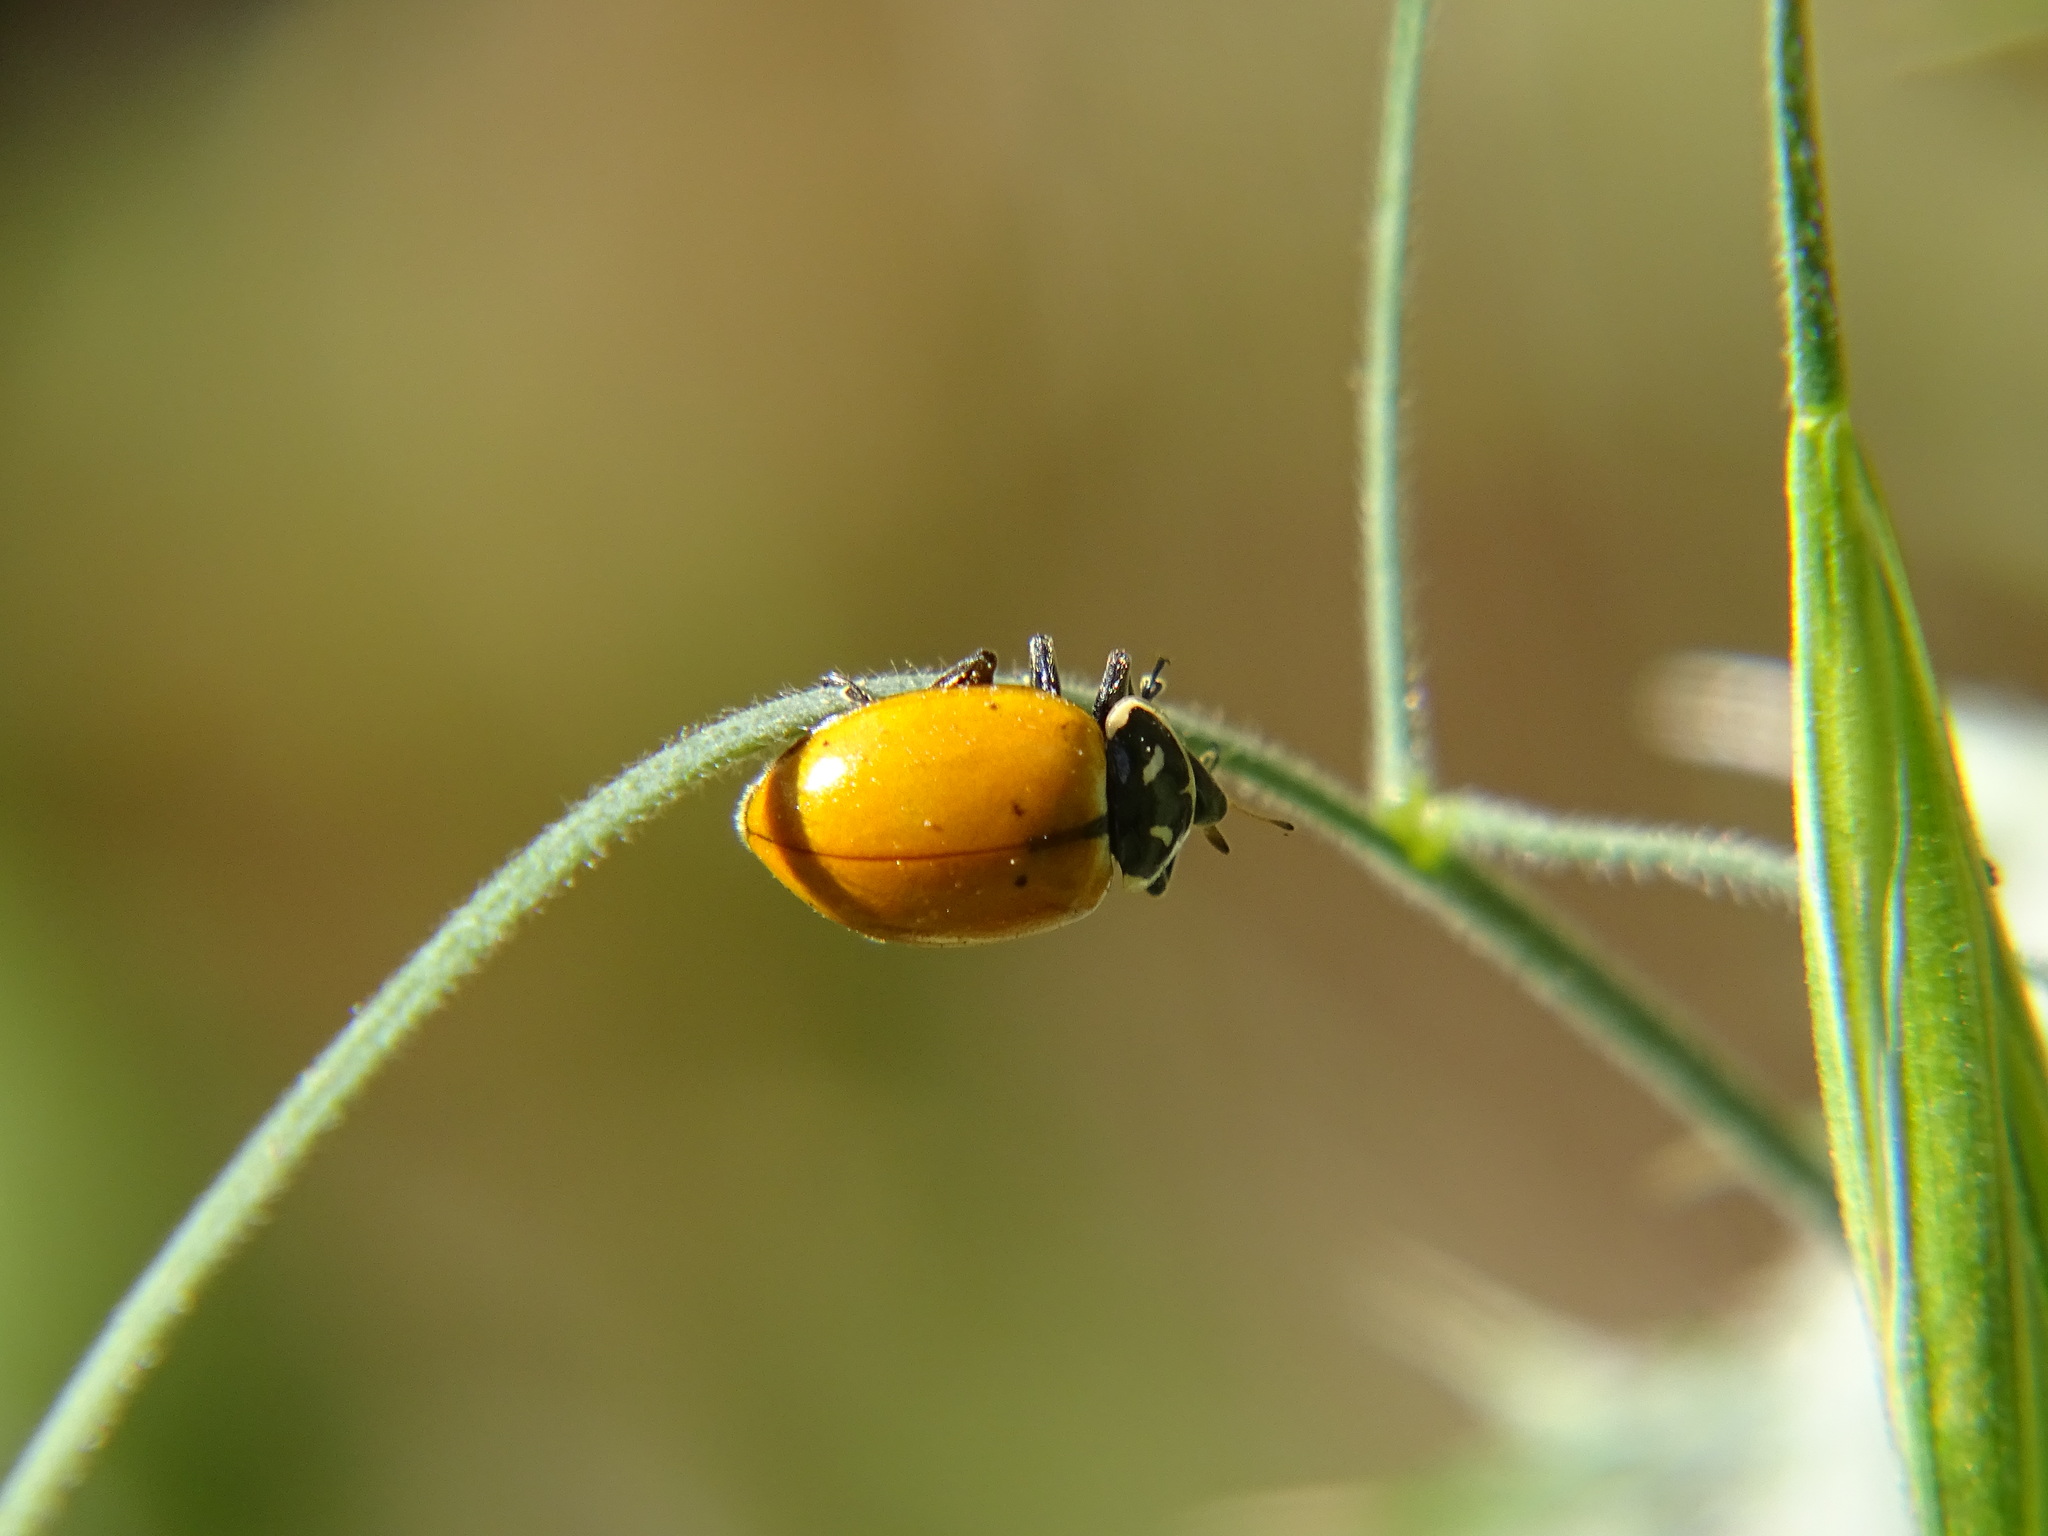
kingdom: Animalia
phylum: Arthropoda
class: Insecta
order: Coleoptera
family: Coccinellidae
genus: Hippodamia
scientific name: Hippodamia convergens
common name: Convergent lady beetle
